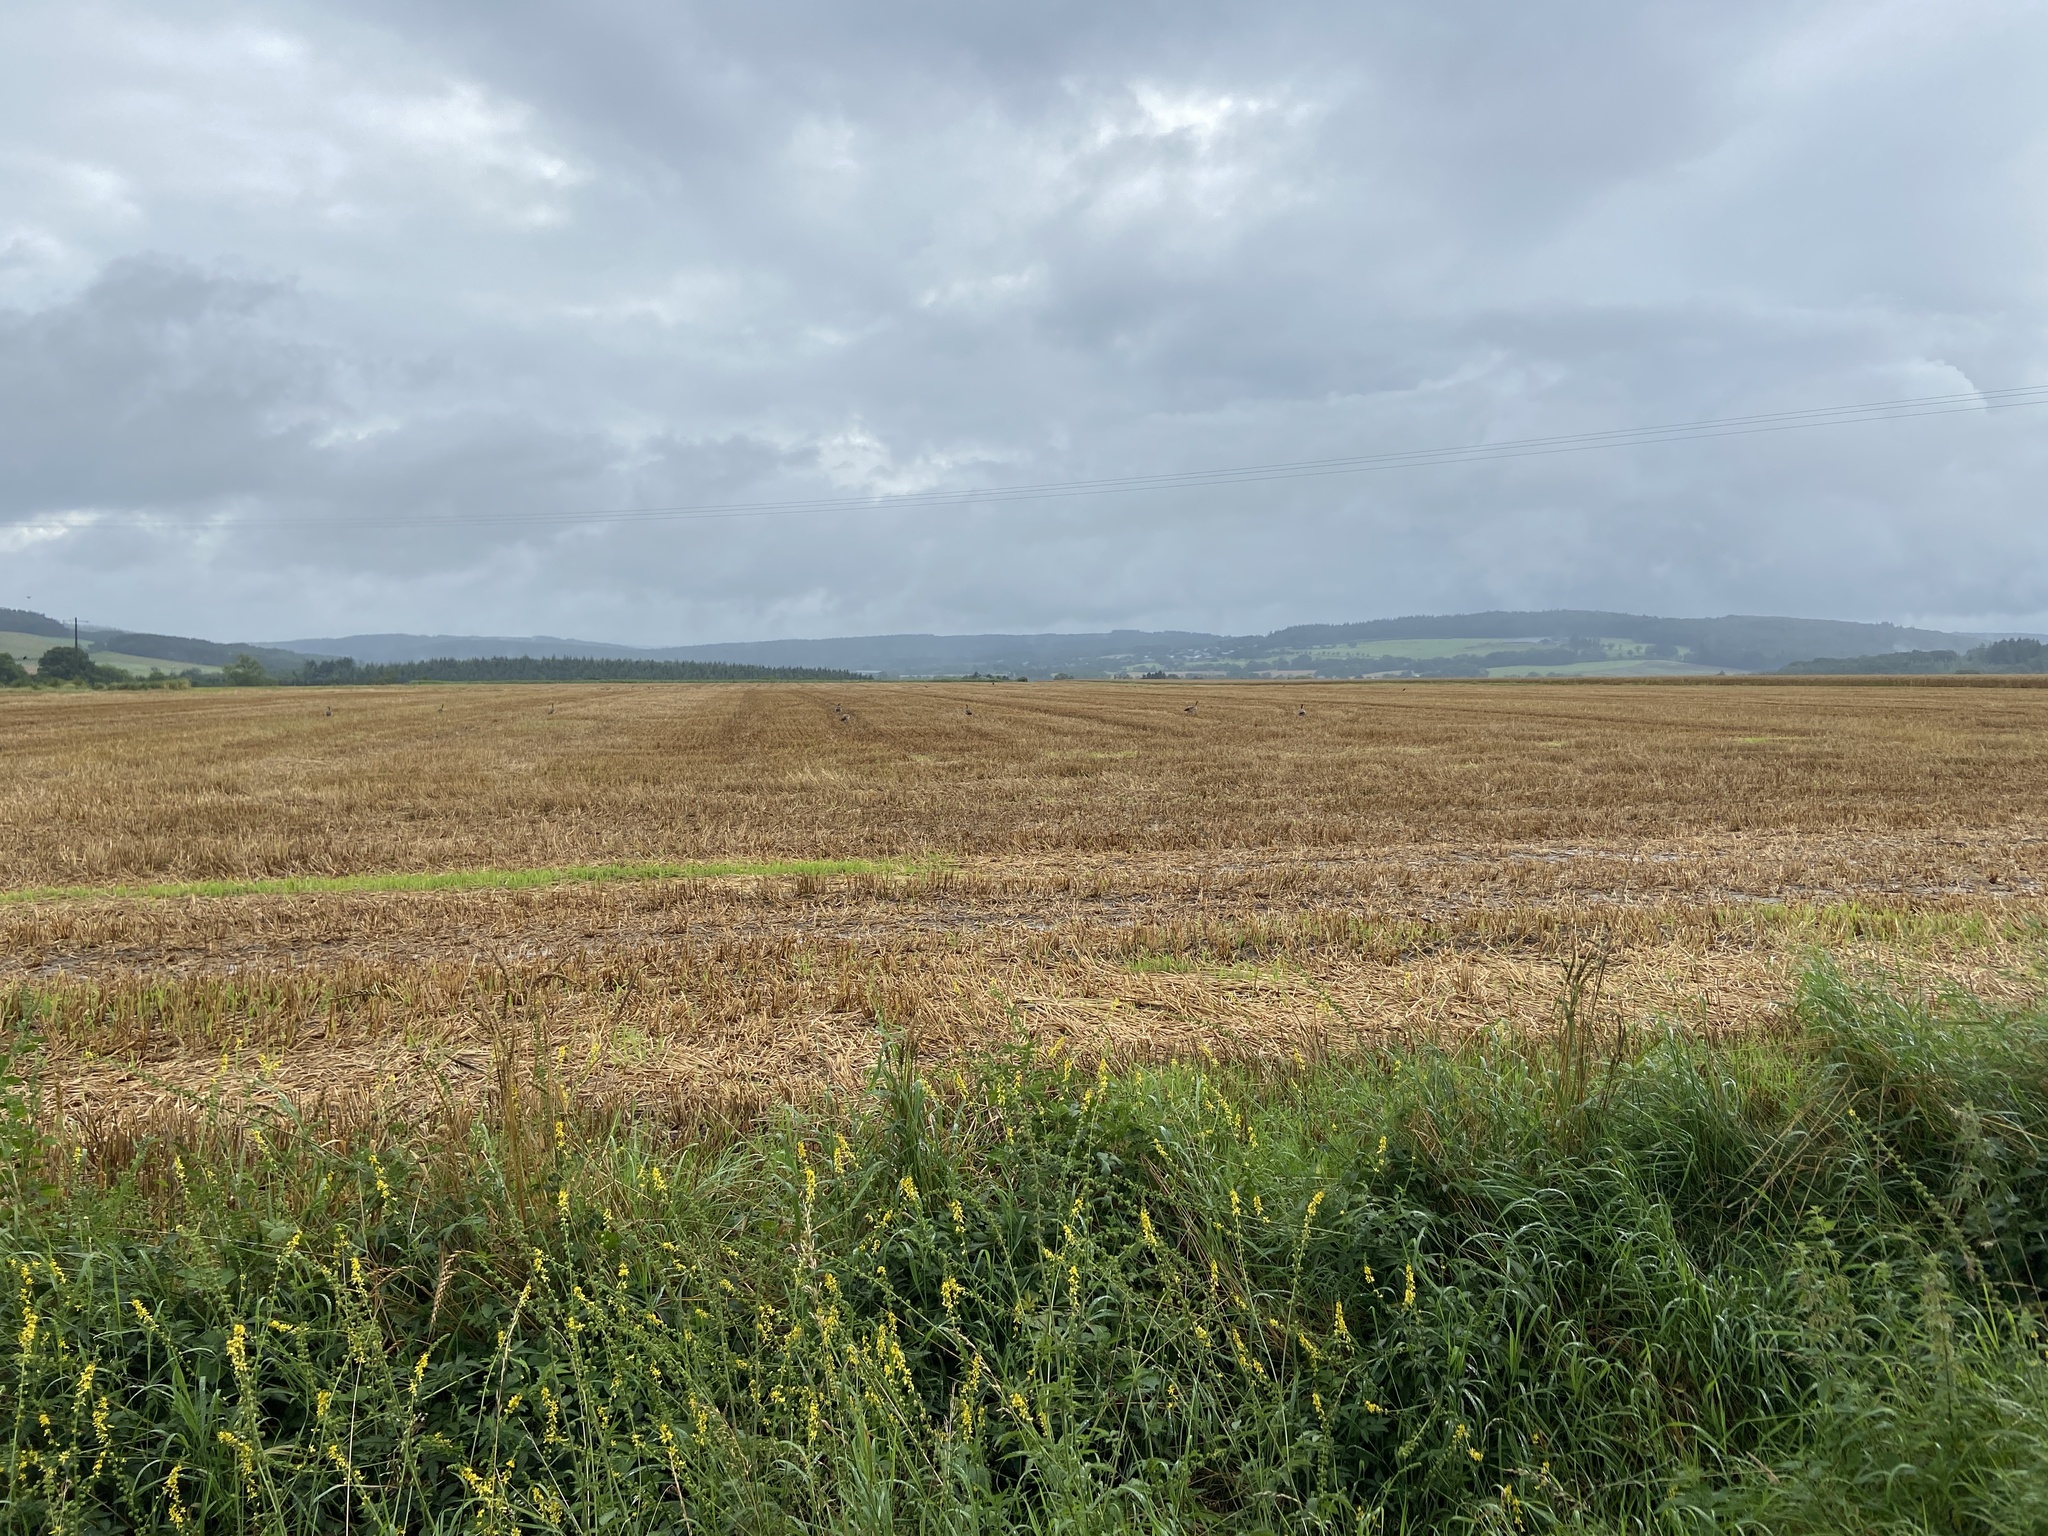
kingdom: Animalia
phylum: Chordata
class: Aves
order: Anseriformes
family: Anatidae
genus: Alopochen
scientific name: Alopochen aegyptiaca
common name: Egyptian goose
